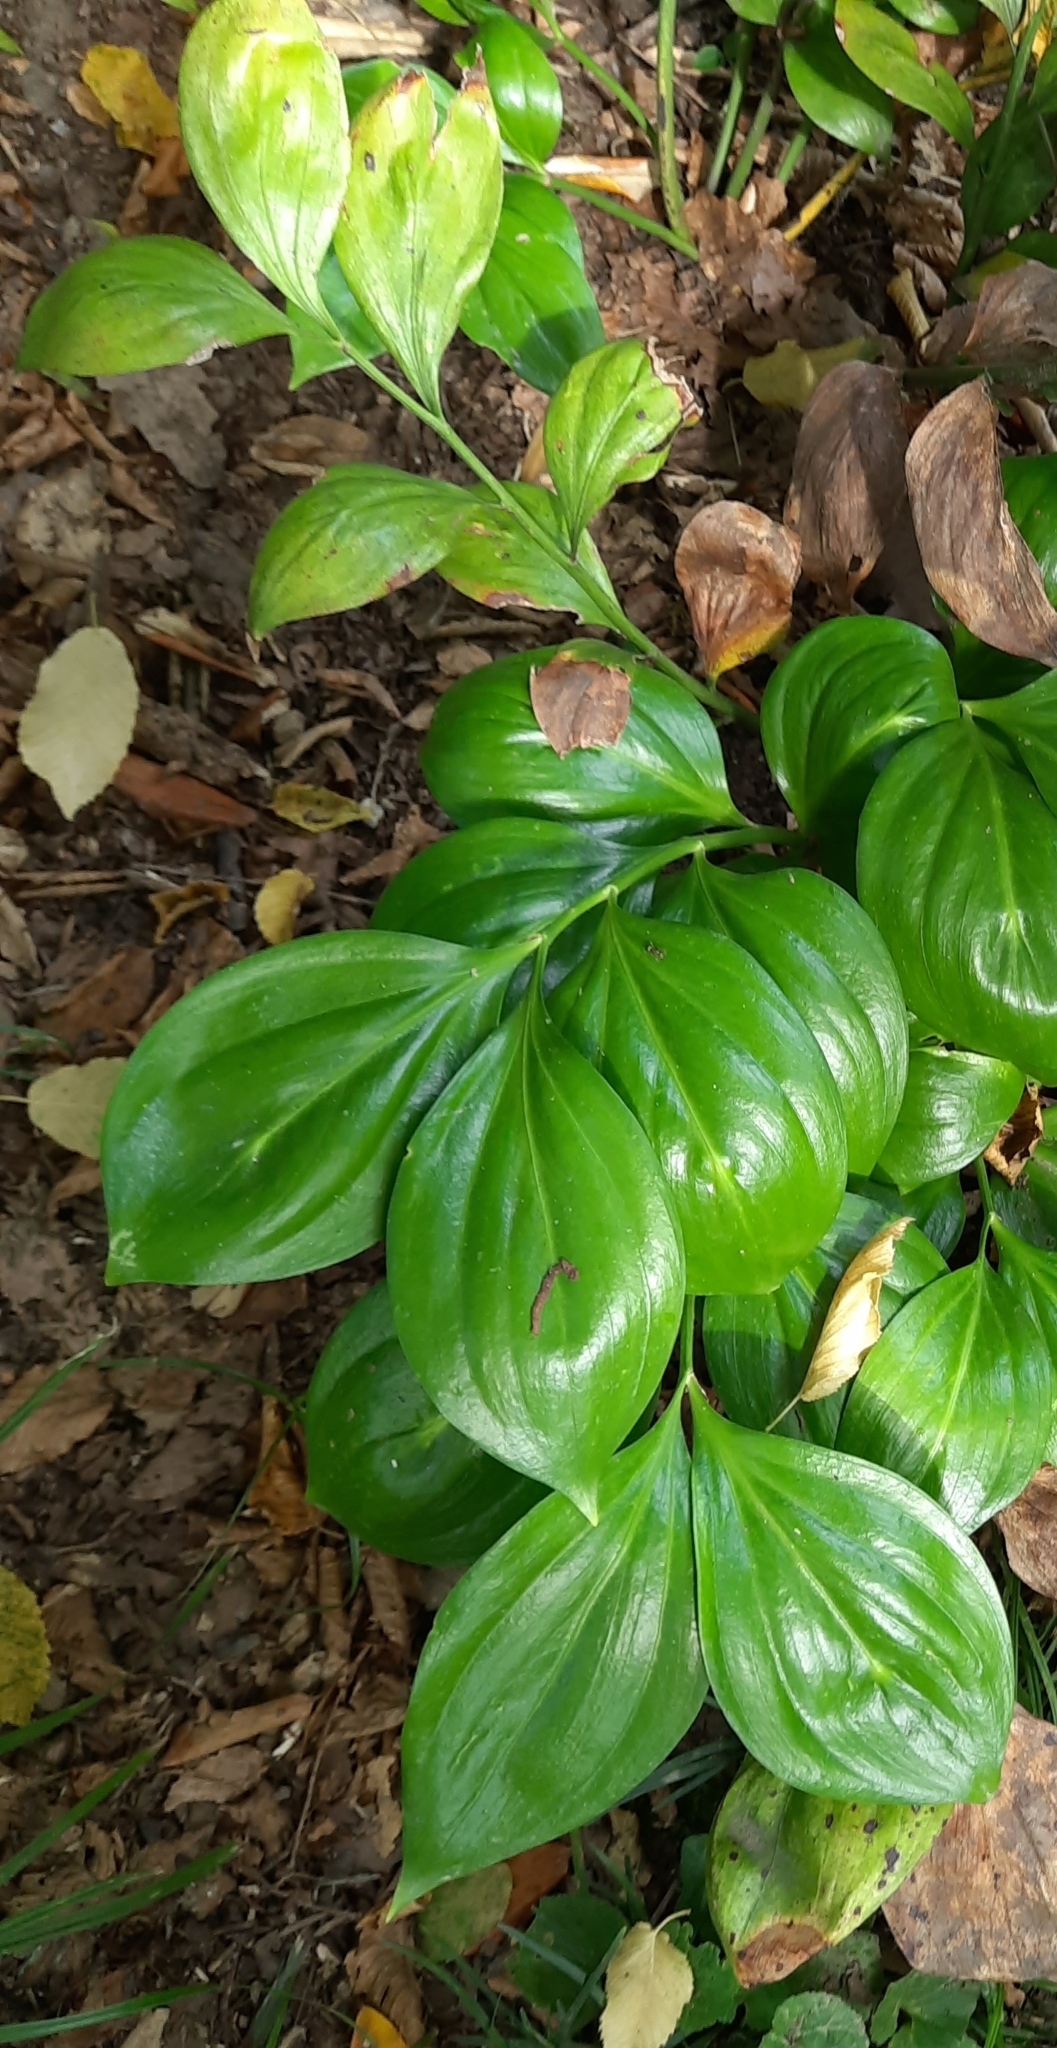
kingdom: Plantae
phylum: Tracheophyta
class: Liliopsida
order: Asparagales
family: Asparagaceae
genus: Ruscus
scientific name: Ruscus colchicus
